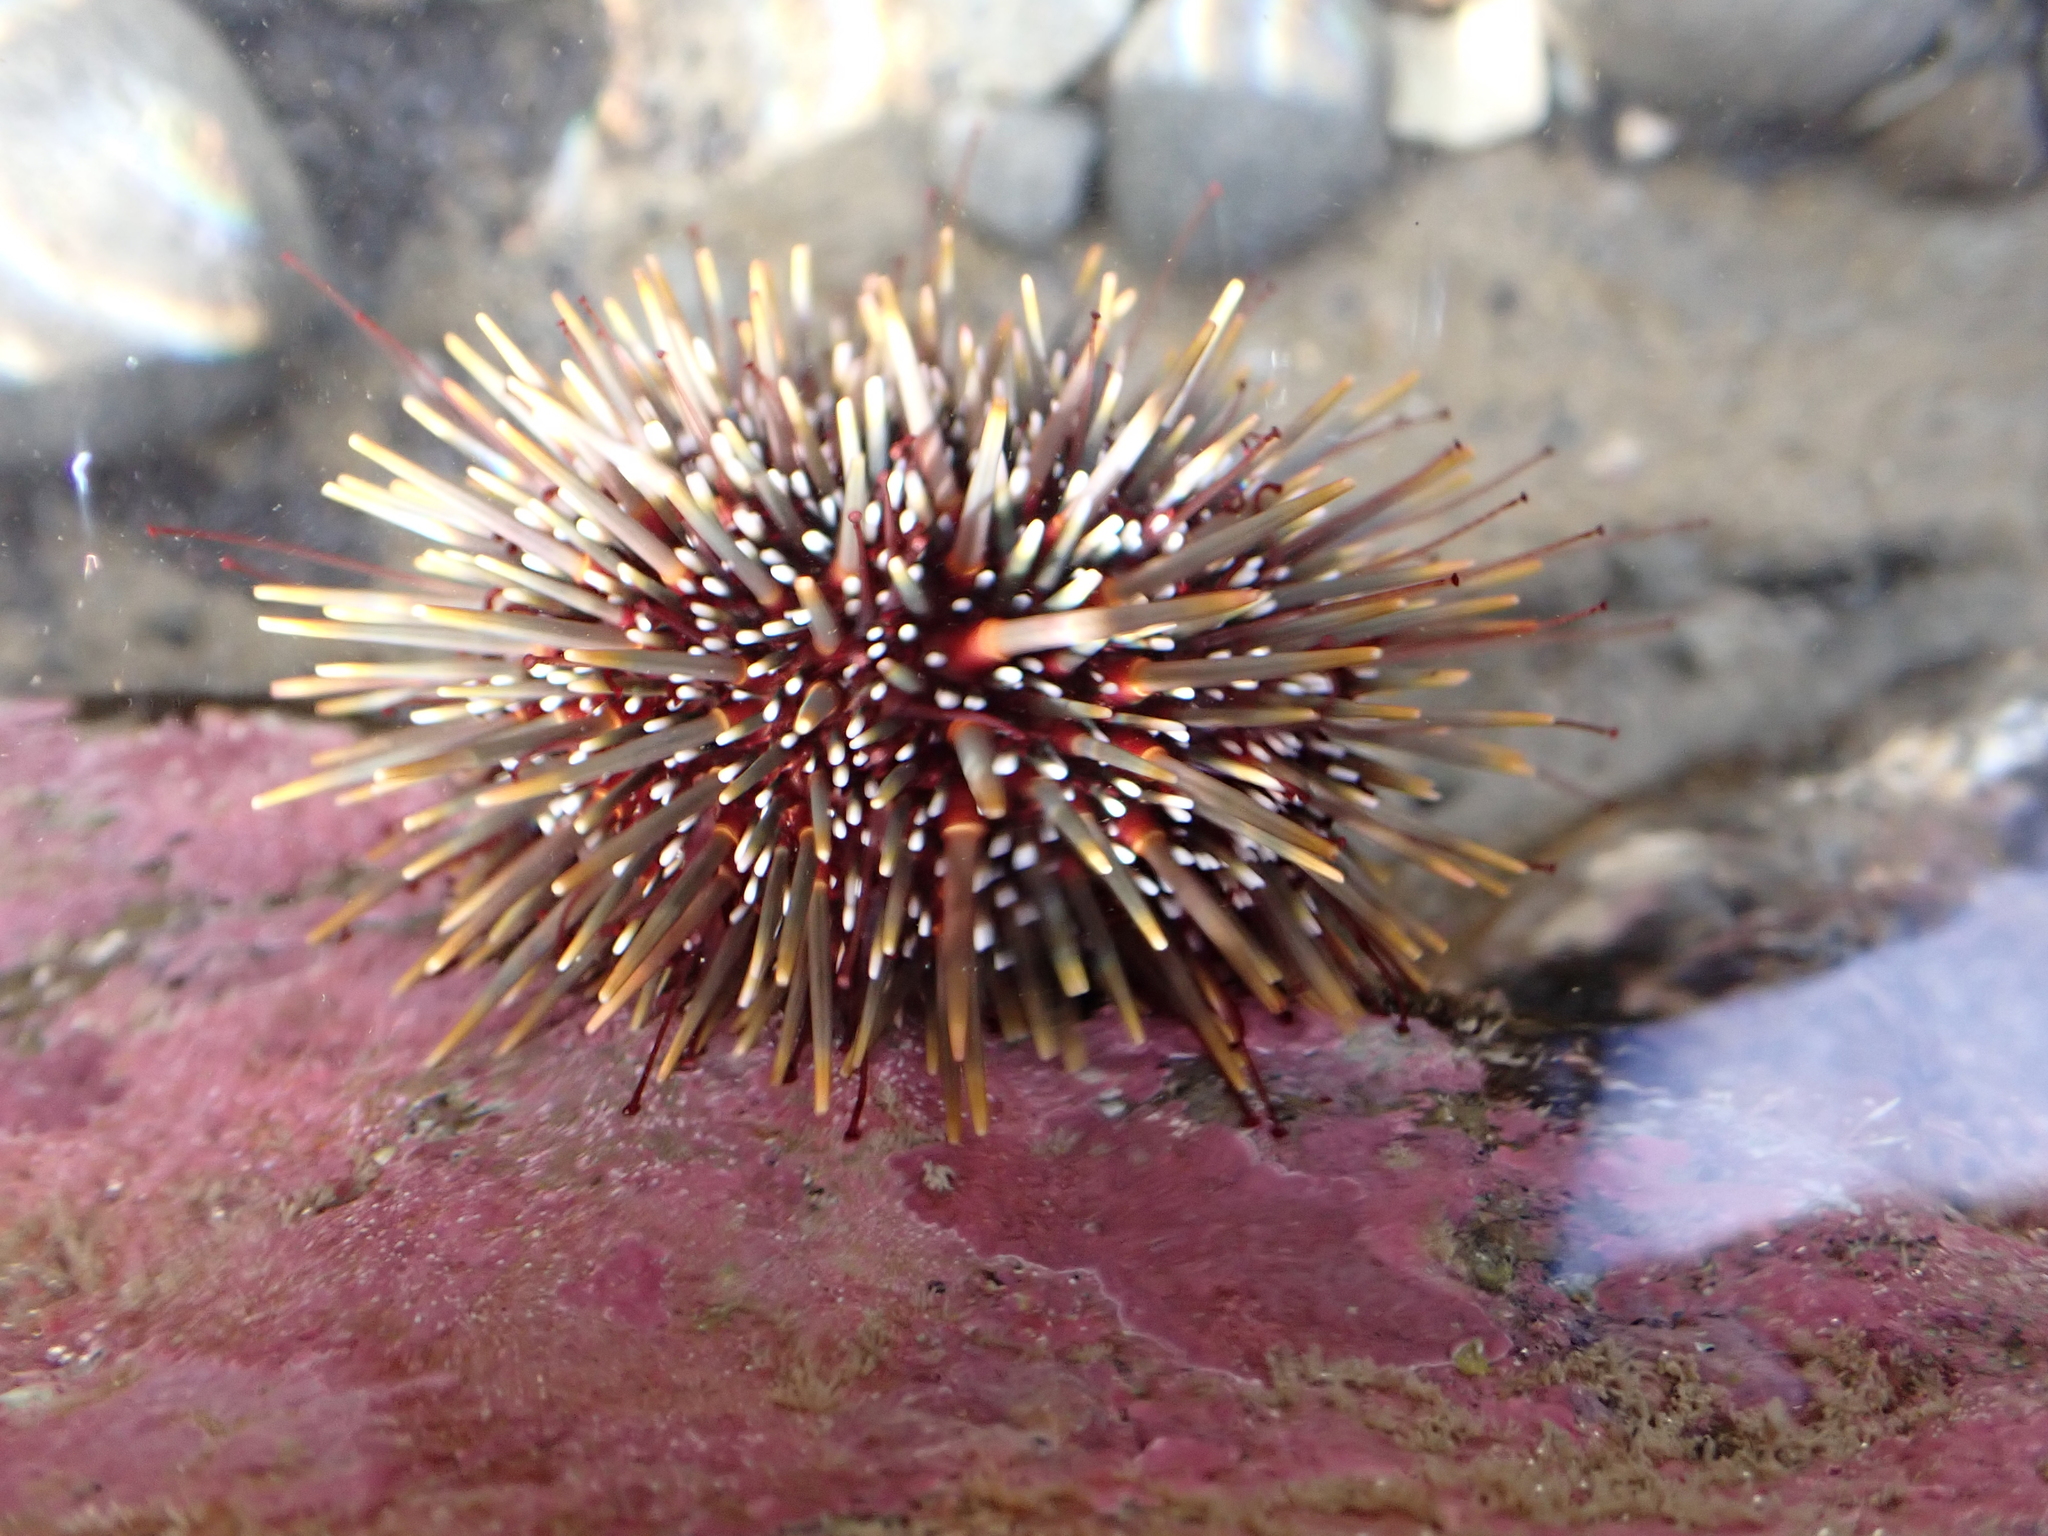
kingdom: Animalia
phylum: Echinodermata
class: Echinoidea
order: Camarodonta
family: Echinometridae
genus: Evechinus
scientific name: Evechinus chloroticus
